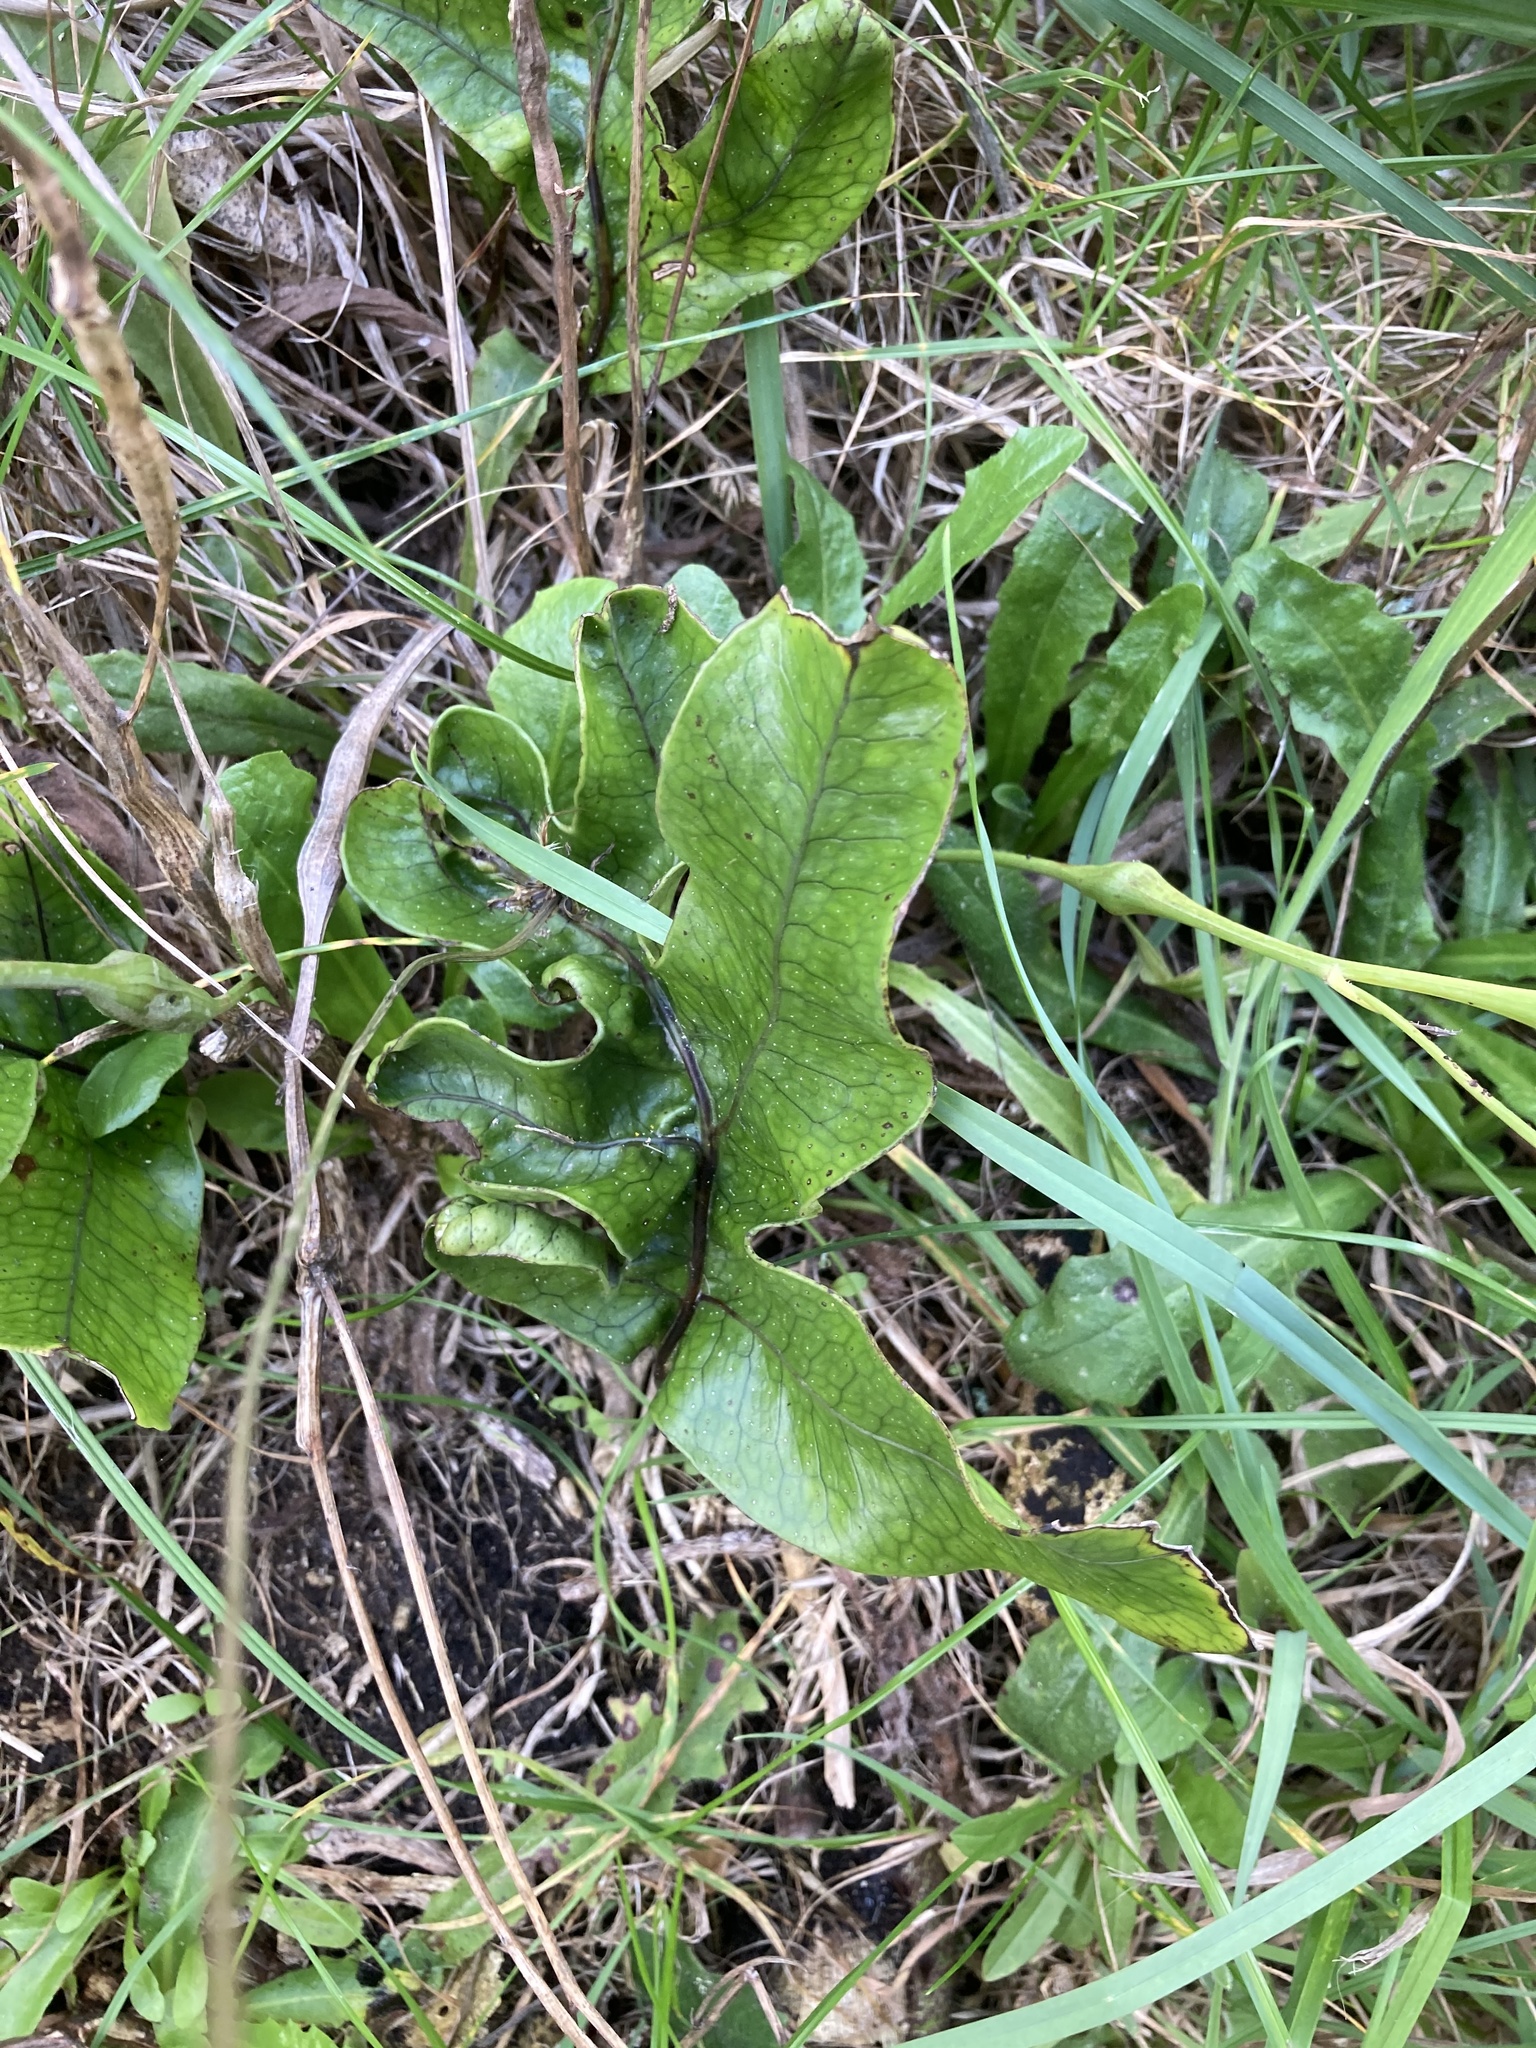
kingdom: Plantae
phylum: Tracheophyta
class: Polypodiopsida
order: Polypodiales
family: Polypodiaceae
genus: Lecanopteris
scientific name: Lecanopteris pustulata
